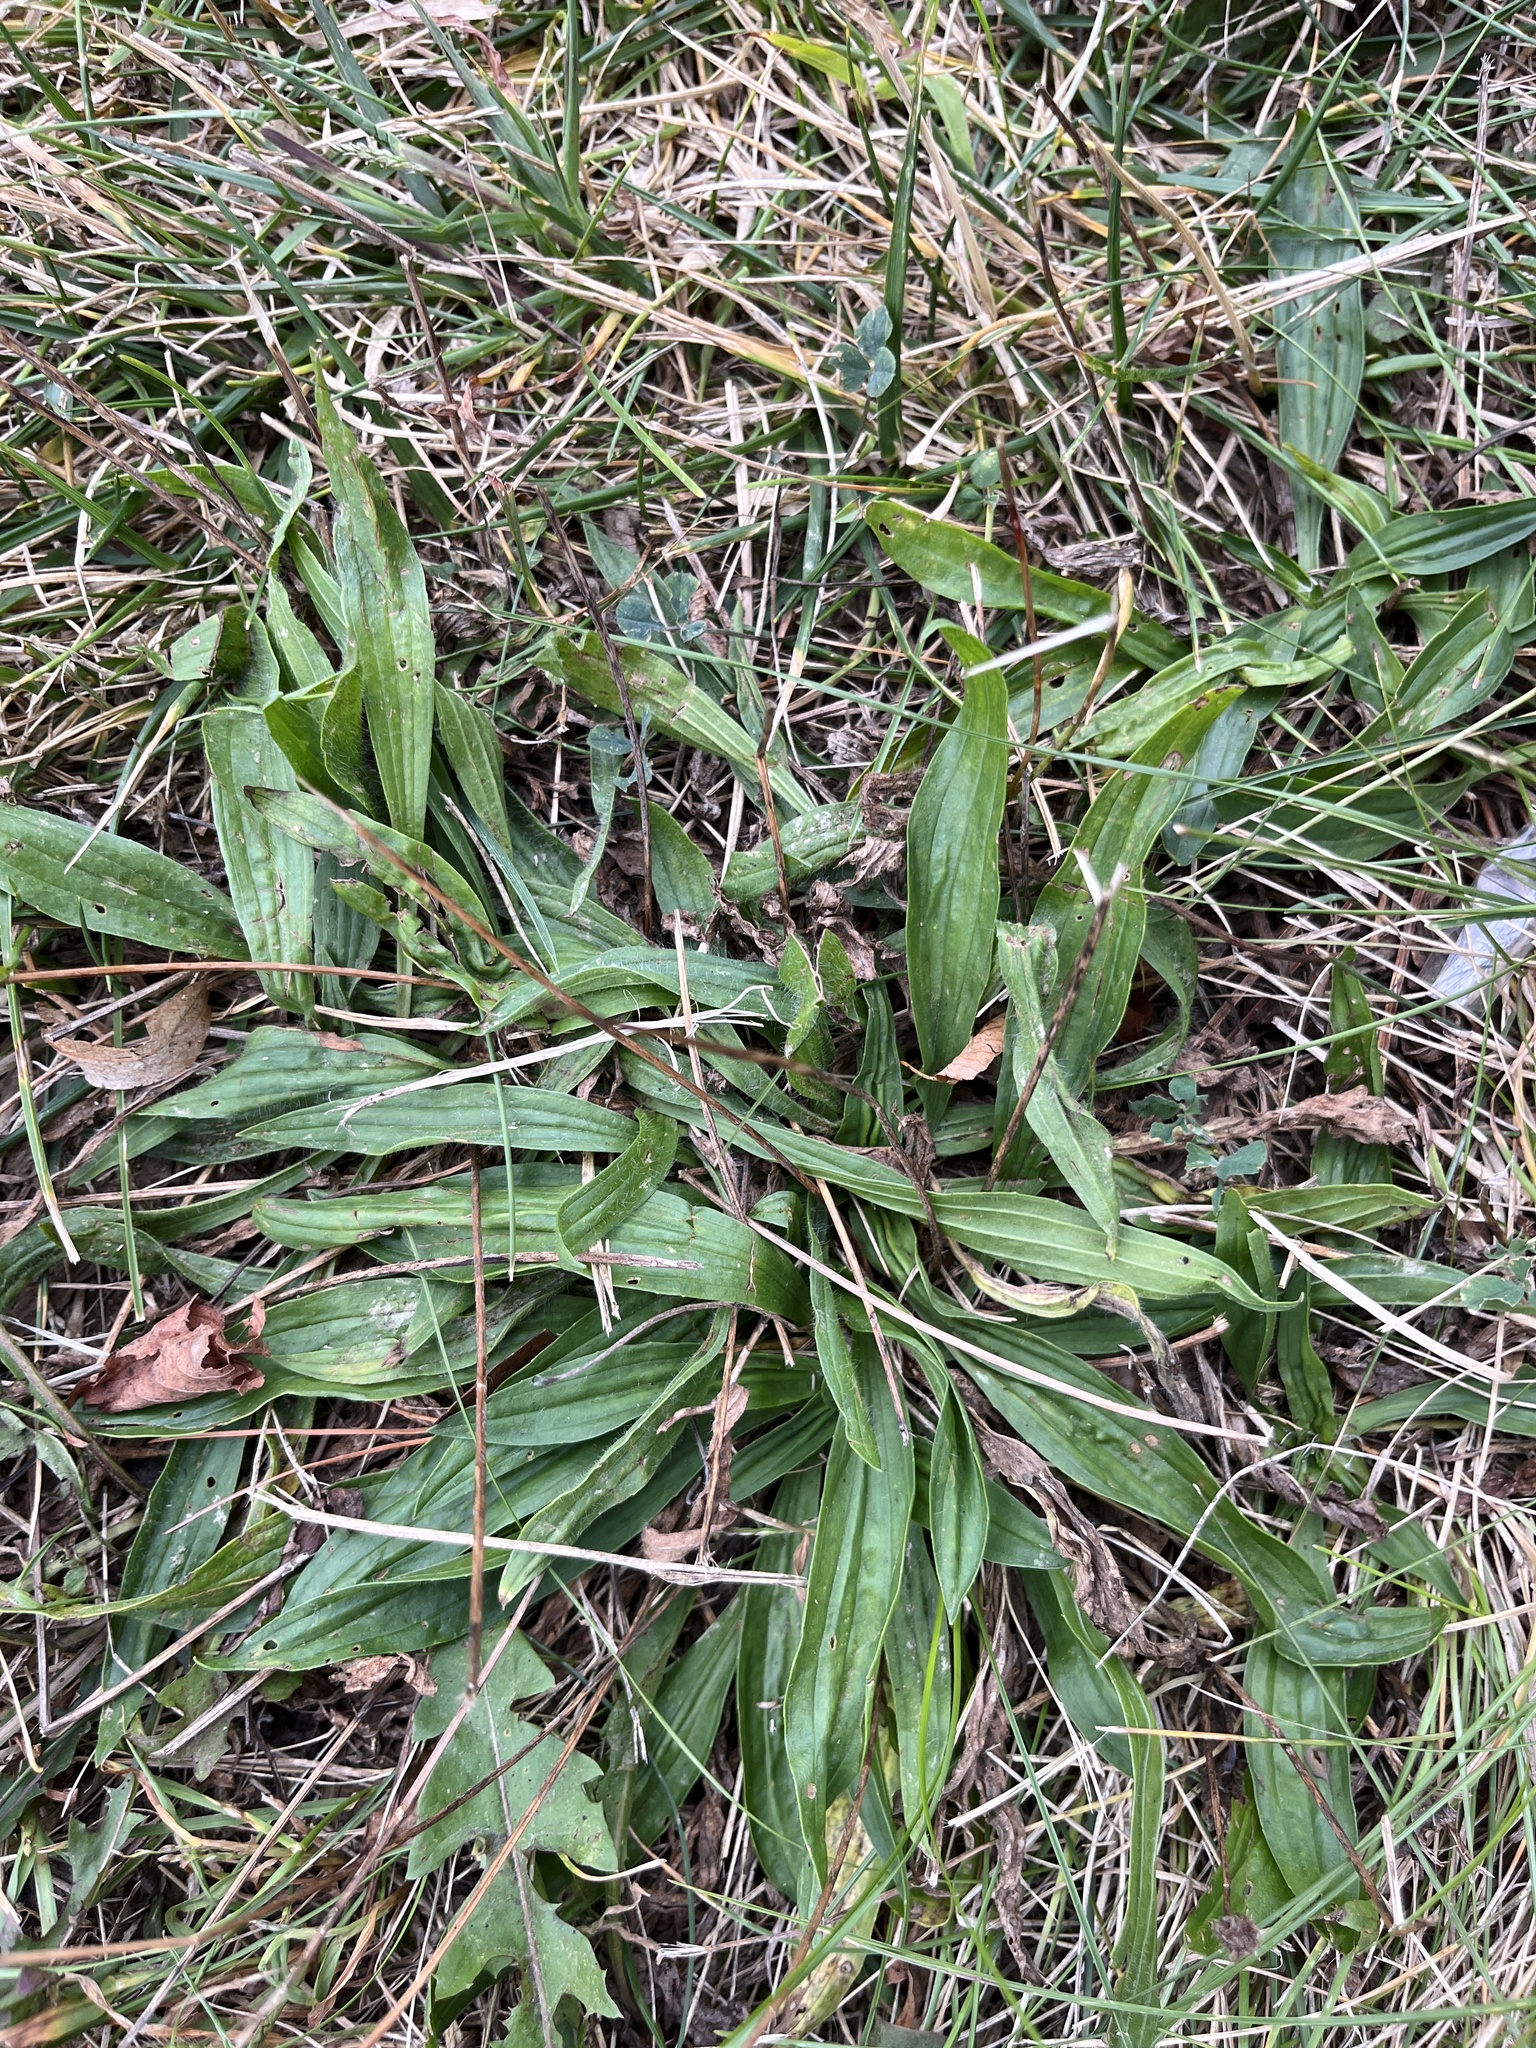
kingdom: Plantae
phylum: Tracheophyta
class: Magnoliopsida
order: Lamiales
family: Plantaginaceae
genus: Plantago
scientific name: Plantago lanceolata
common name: Ribwort plantain
